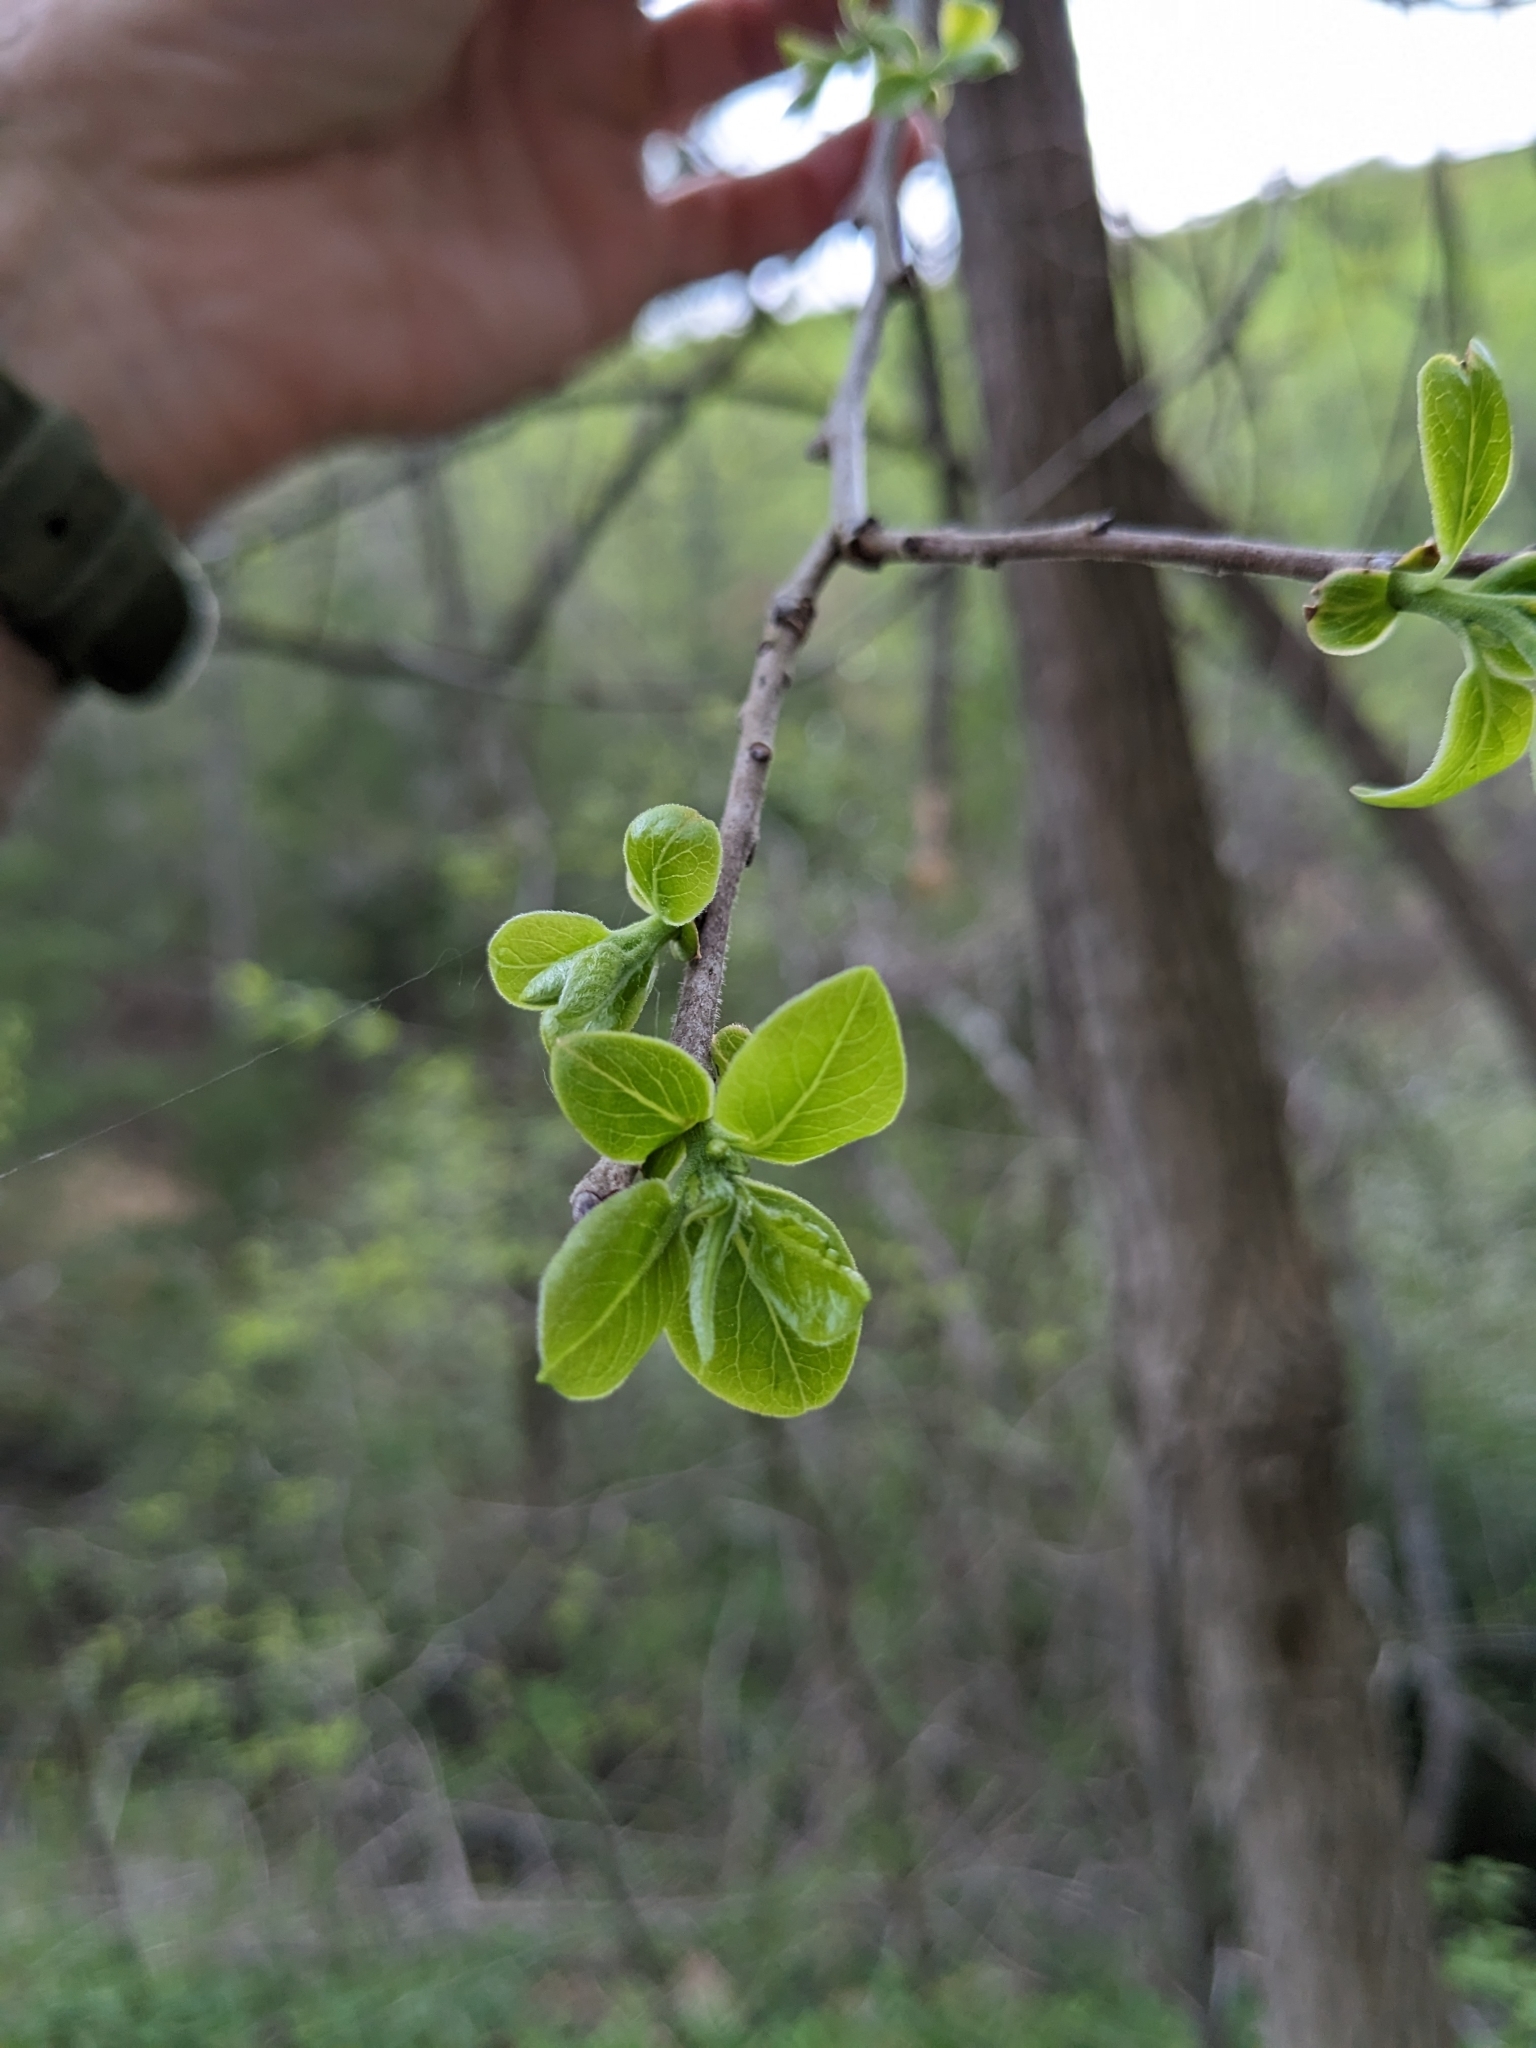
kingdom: Plantae
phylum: Tracheophyta
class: Magnoliopsida
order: Ericales
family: Ebenaceae
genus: Diospyros
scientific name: Diospyros virginiana
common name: Persimmon
